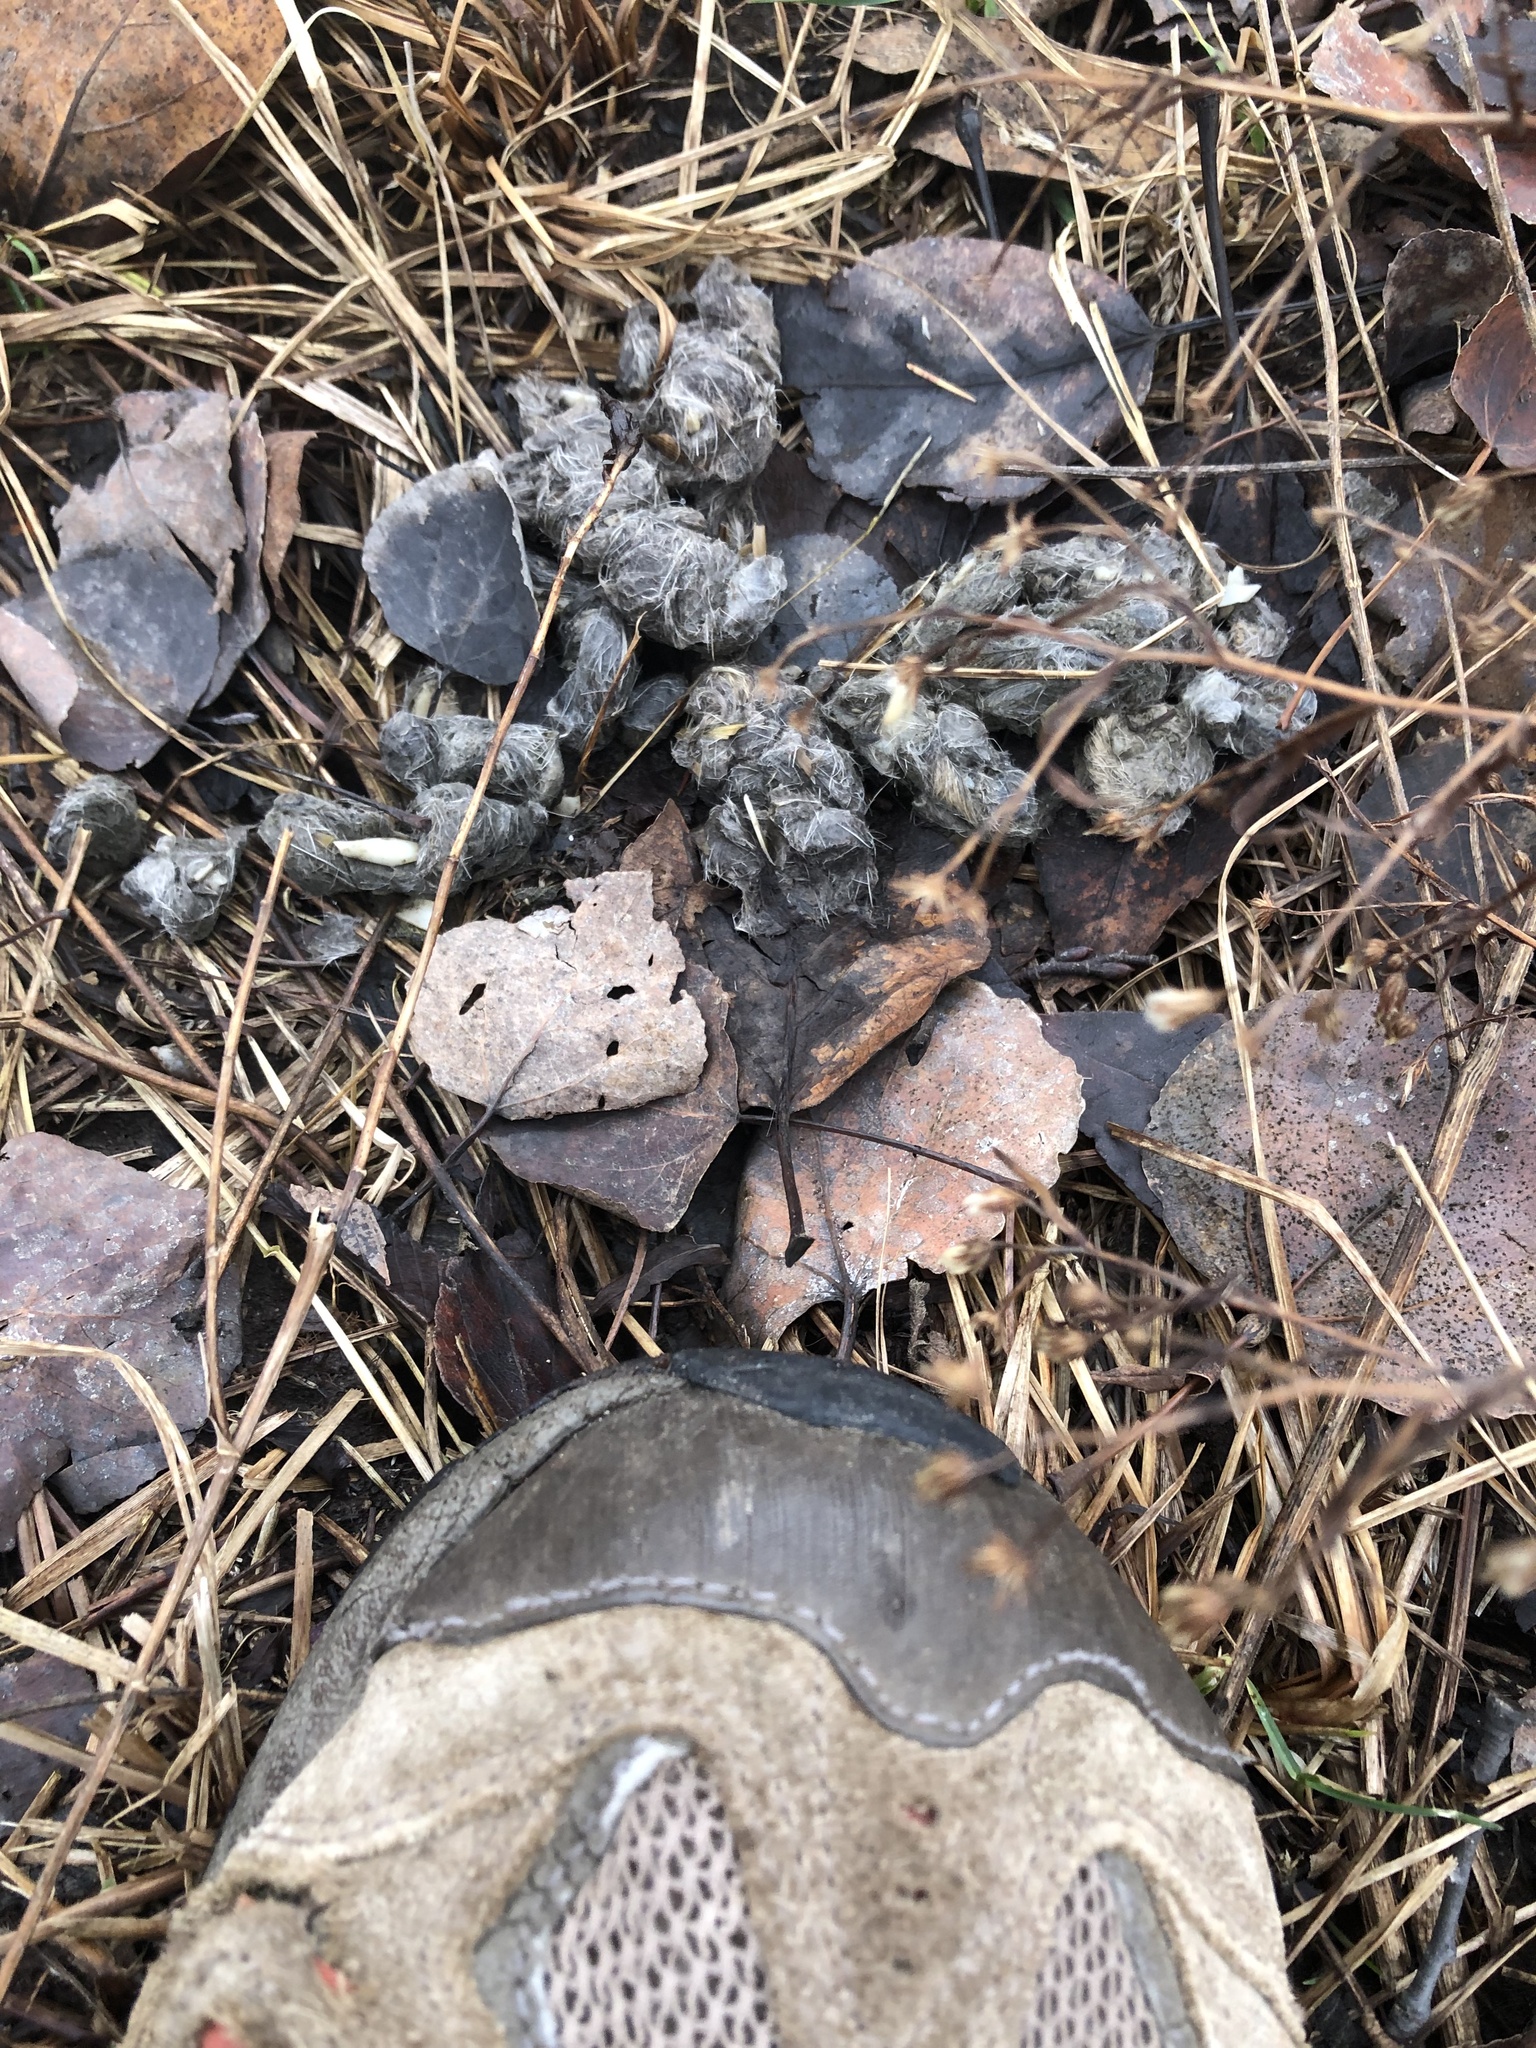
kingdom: Animalia
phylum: Chordata
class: Mammalia
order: Carnivora
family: Canidae
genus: Canis
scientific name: Canis latrans
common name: Coyote
